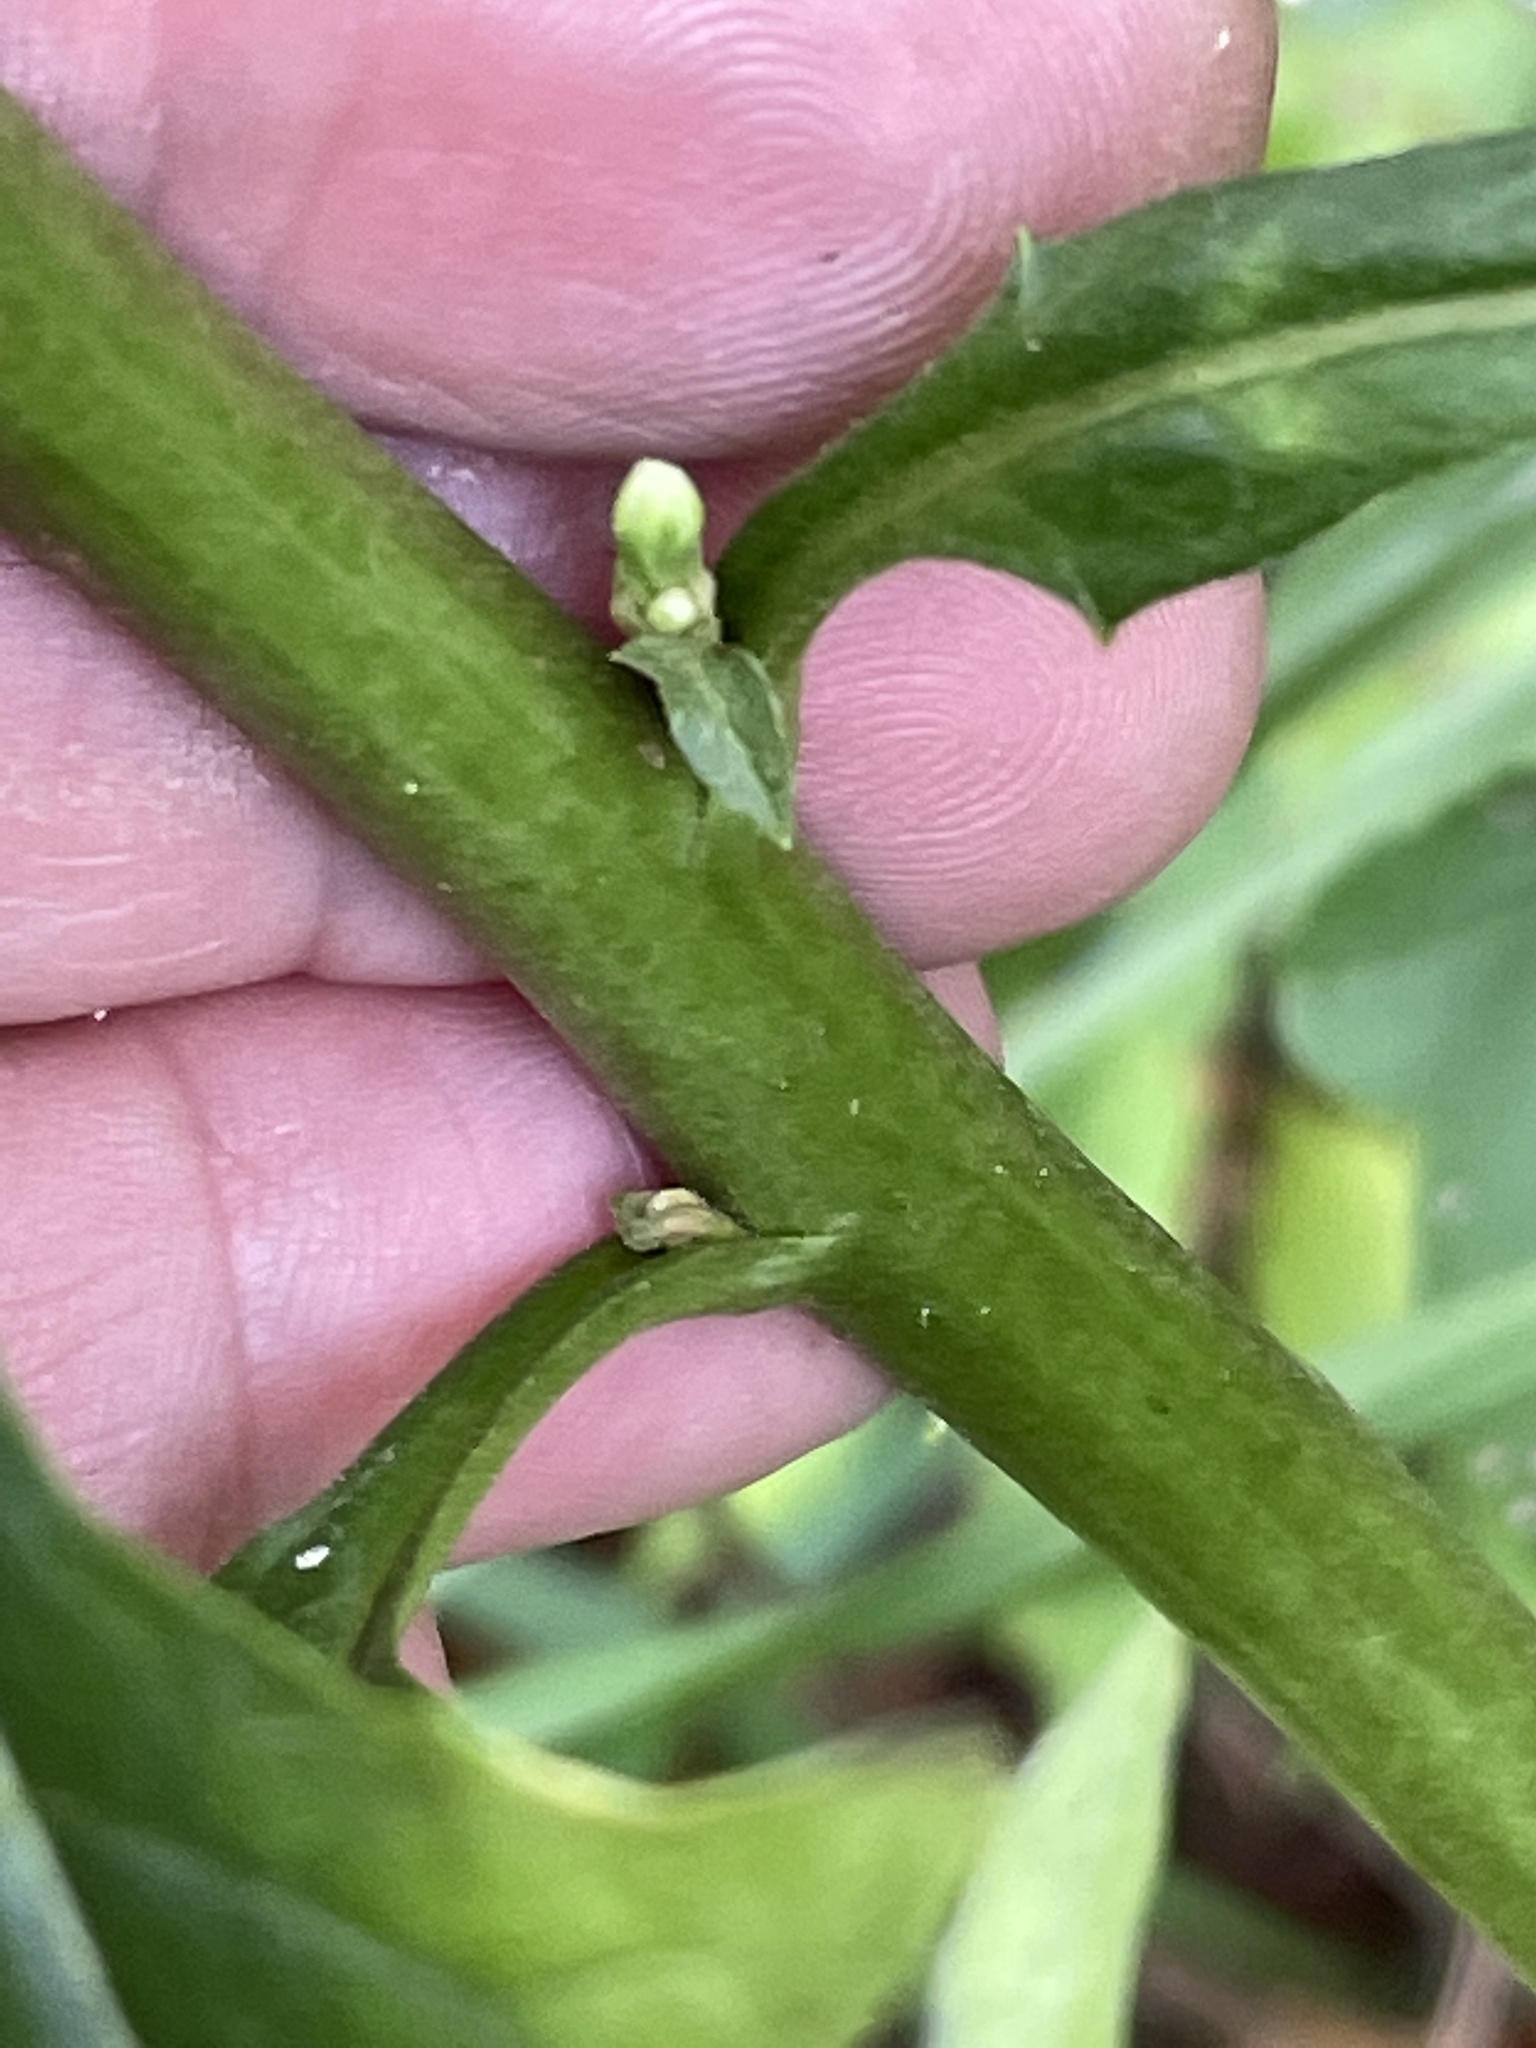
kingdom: Plantae
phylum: Tracheophyta
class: Magnoliopsida
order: Asterales
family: Asteraceae
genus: Nabalus
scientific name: Nabalus altissima
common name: Tall rattlesnakeroot
